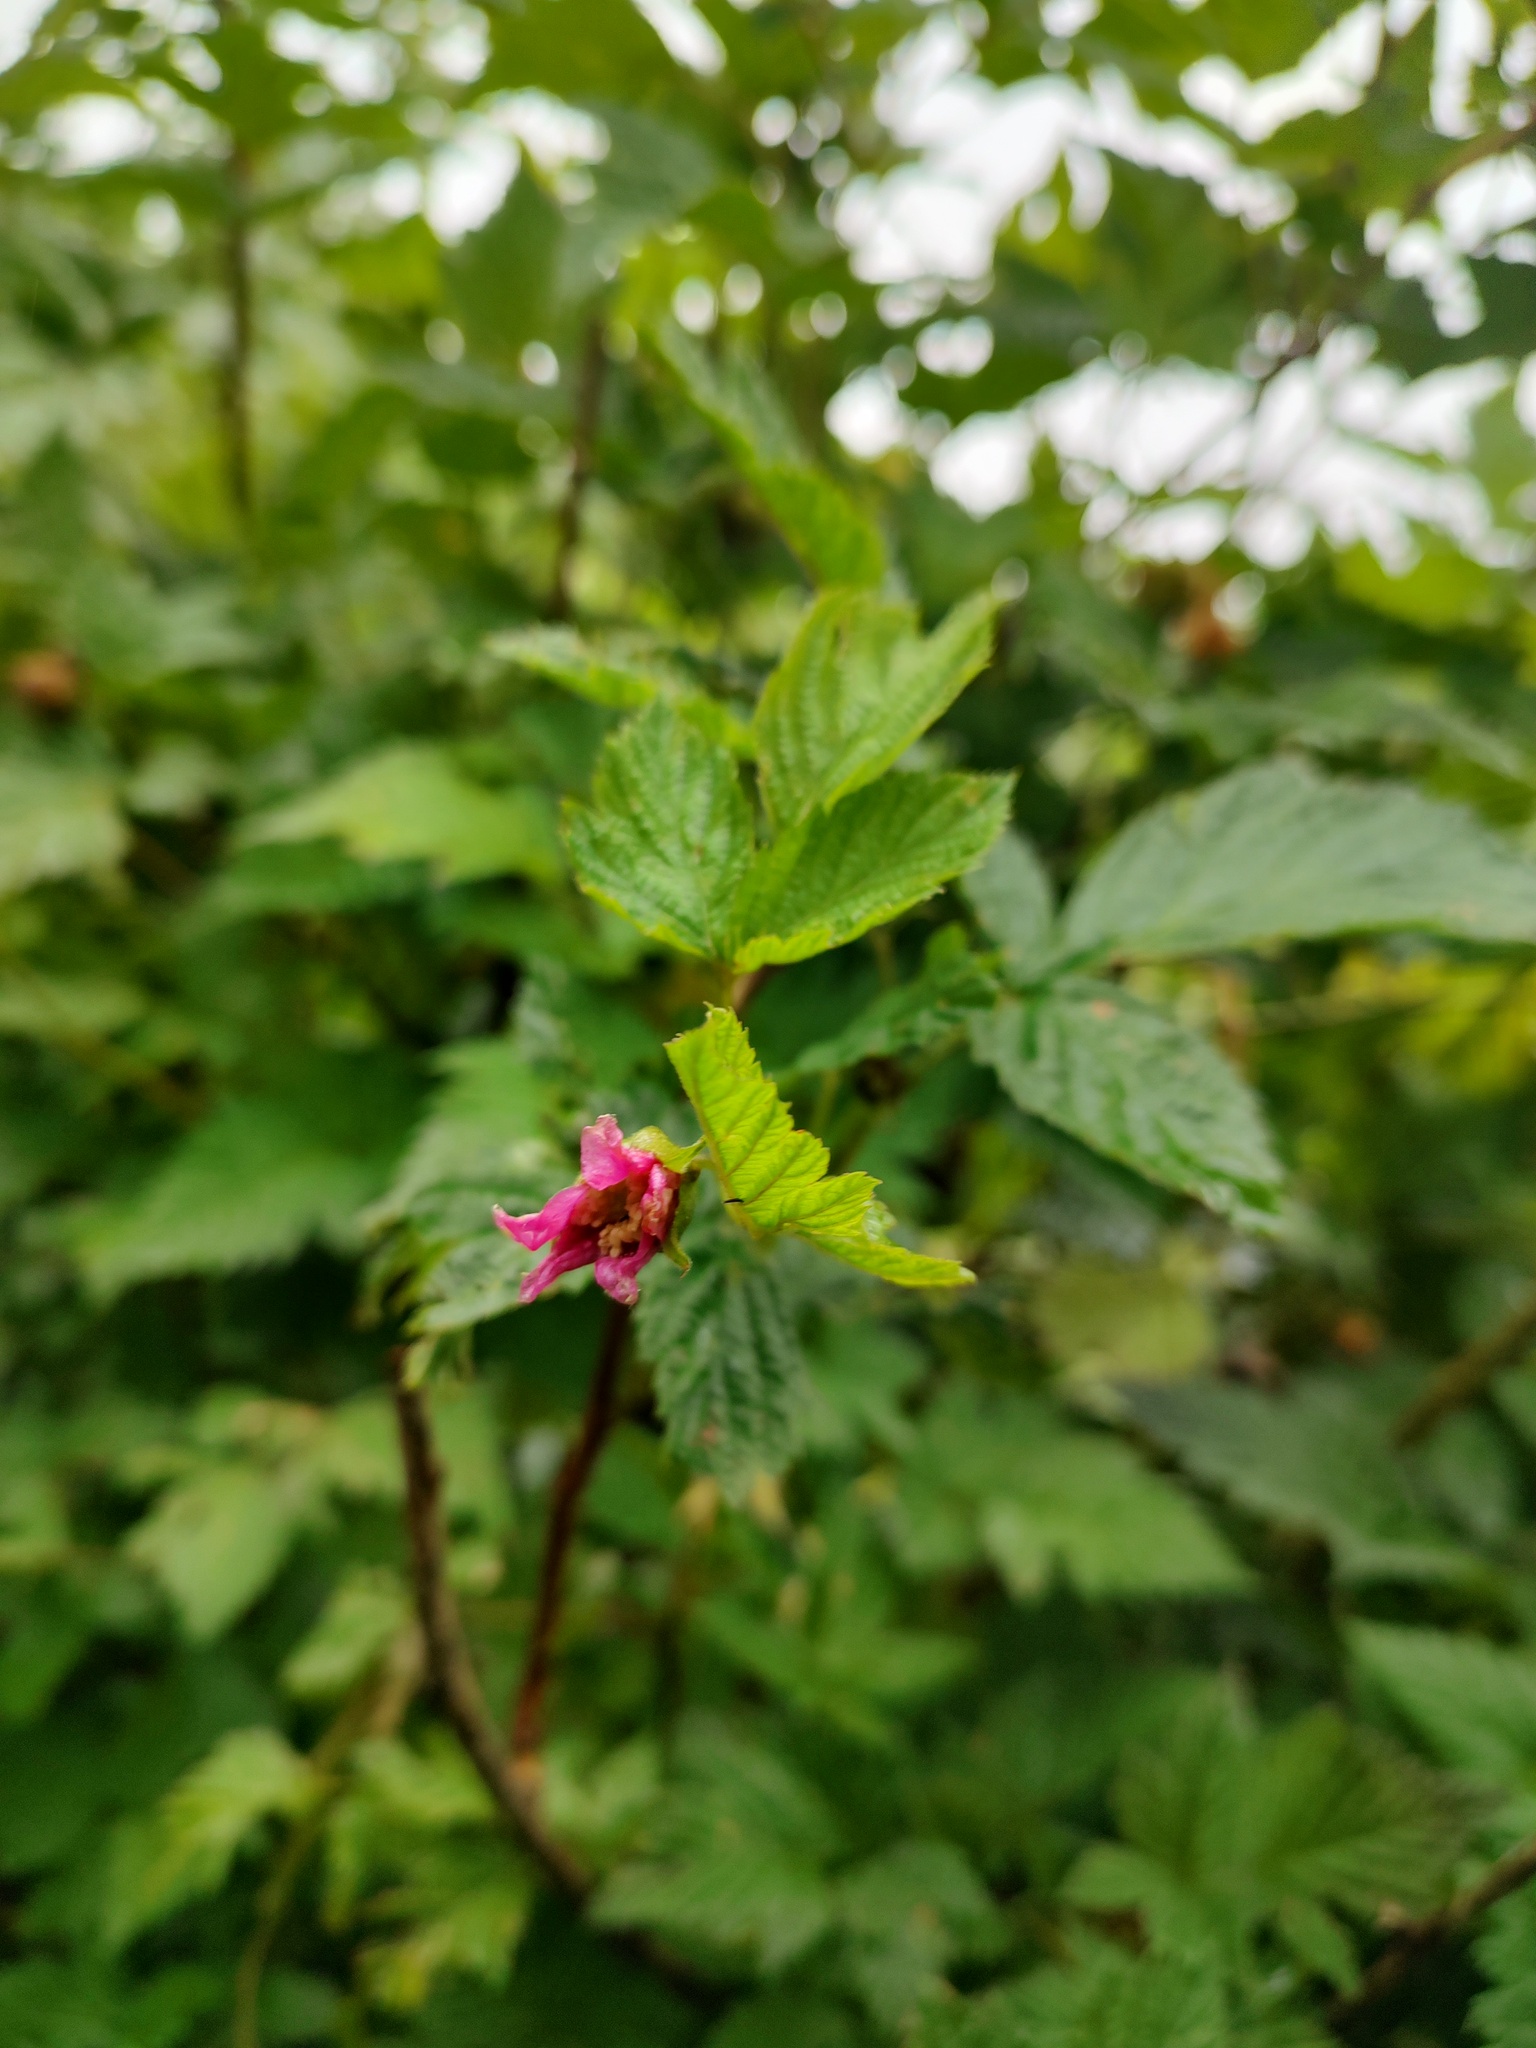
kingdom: Plantae
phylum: Tracheophyta
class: Magnoliopsida
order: Rosales
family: Rosaceae
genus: Rubus
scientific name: Rubus spectabilis
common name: Salmonberry
